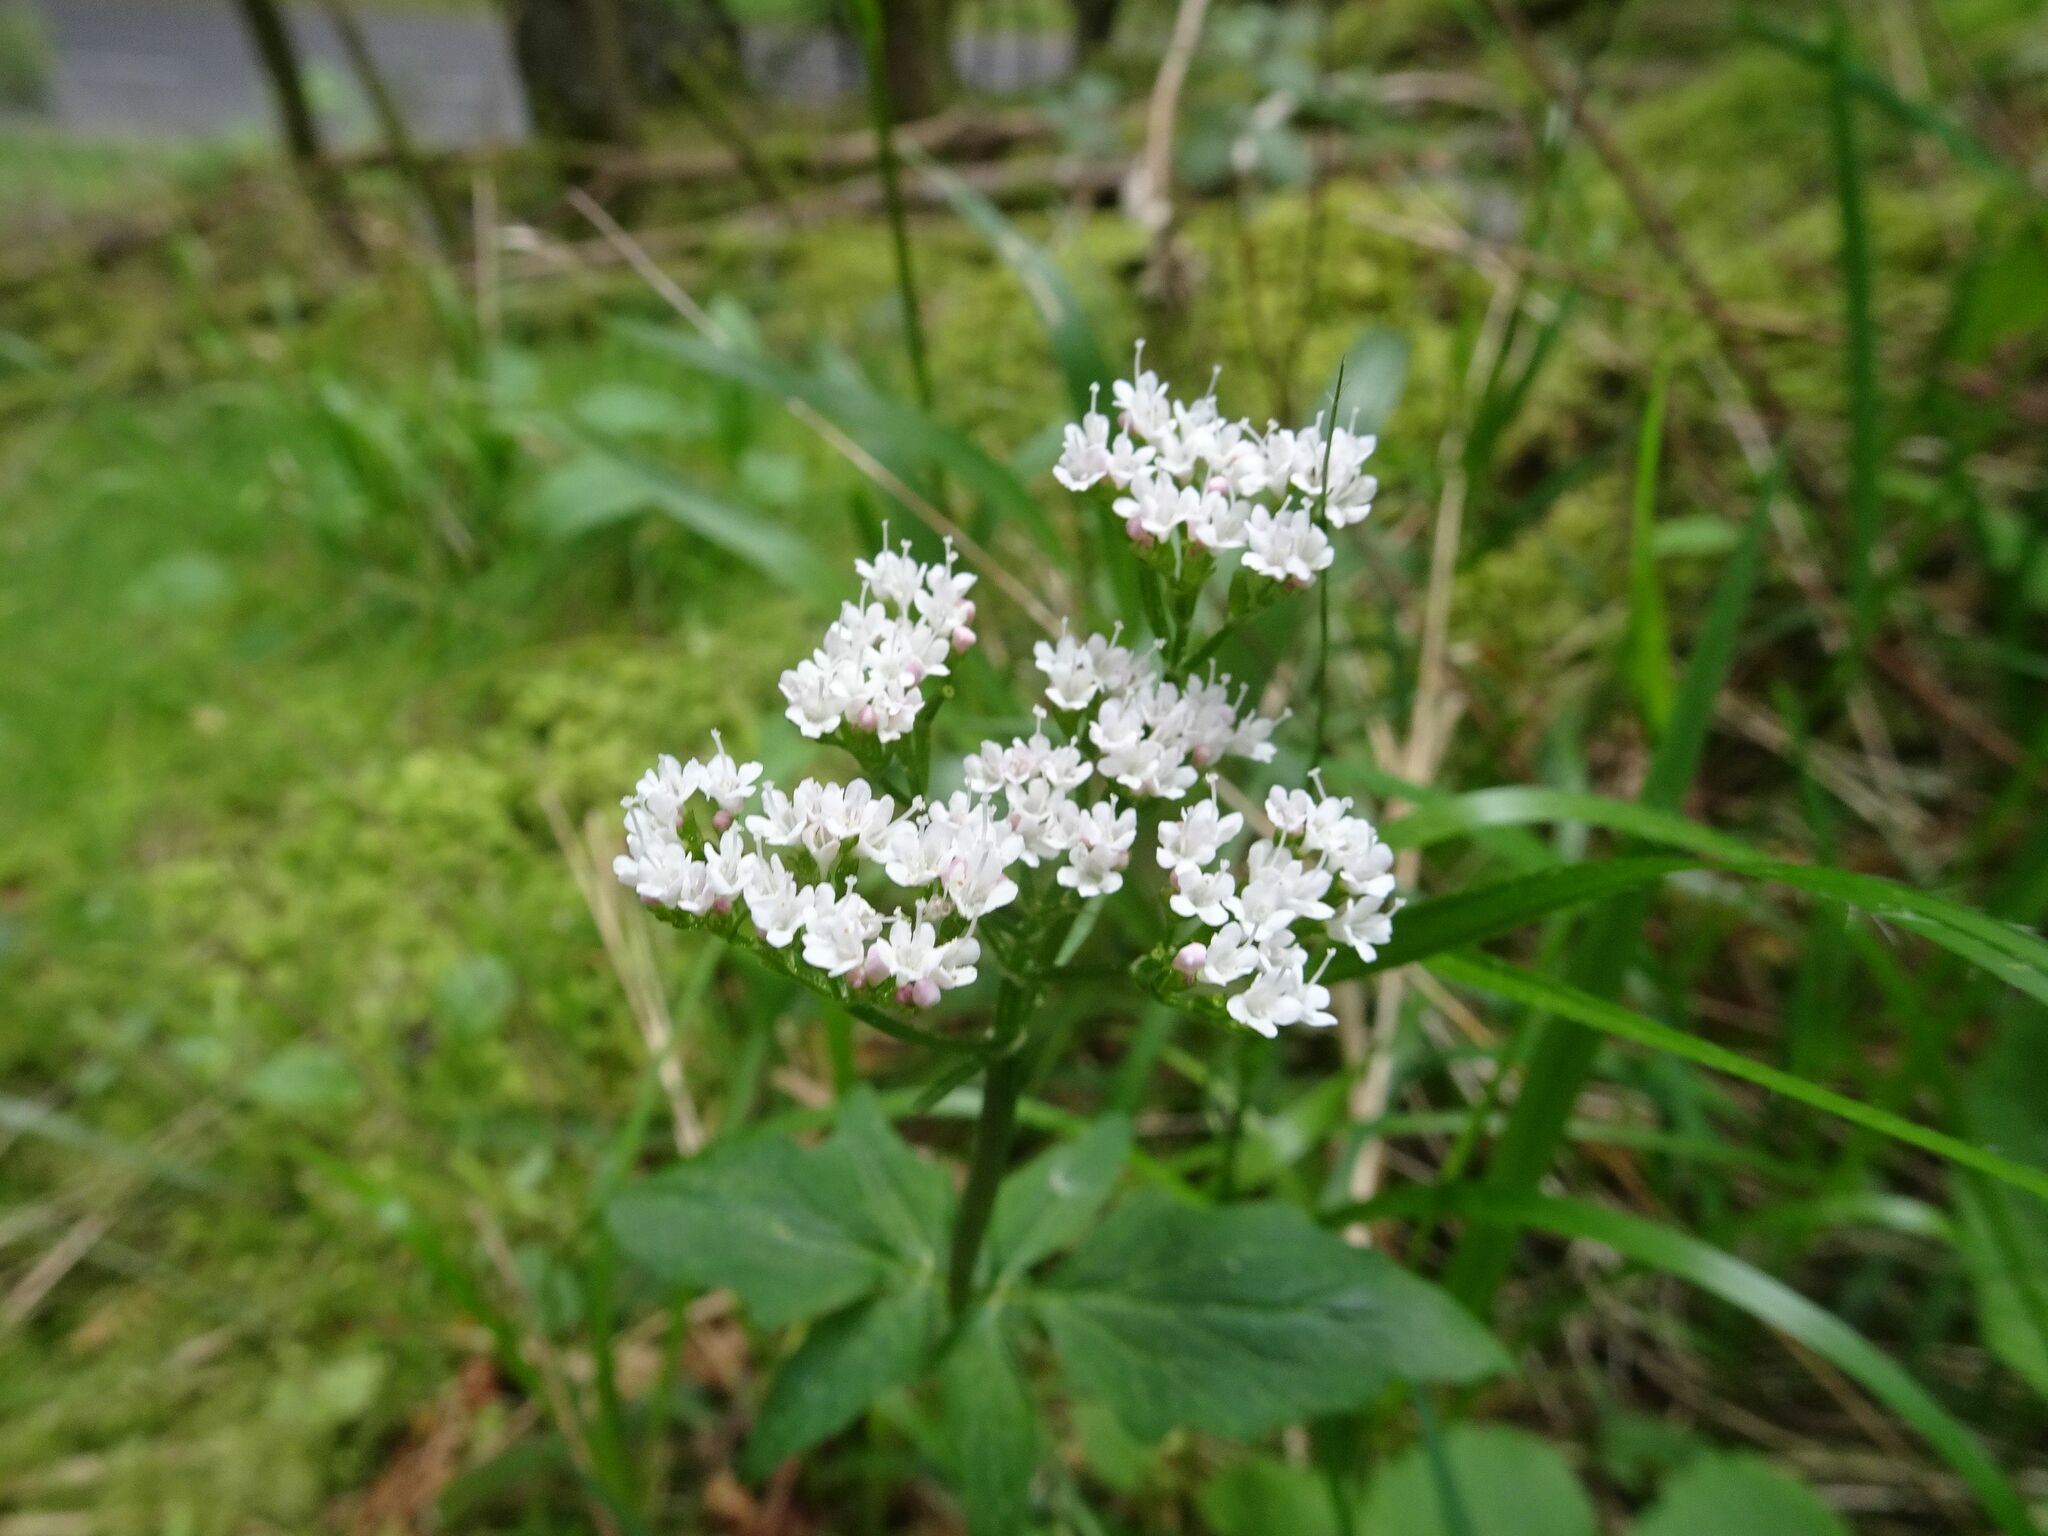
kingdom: Plantae
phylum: Tracheophyta
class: Magnoliopsida
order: Dipsacales
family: Caprifoliaceae
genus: Valeriana
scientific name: Valeriana tripteris
